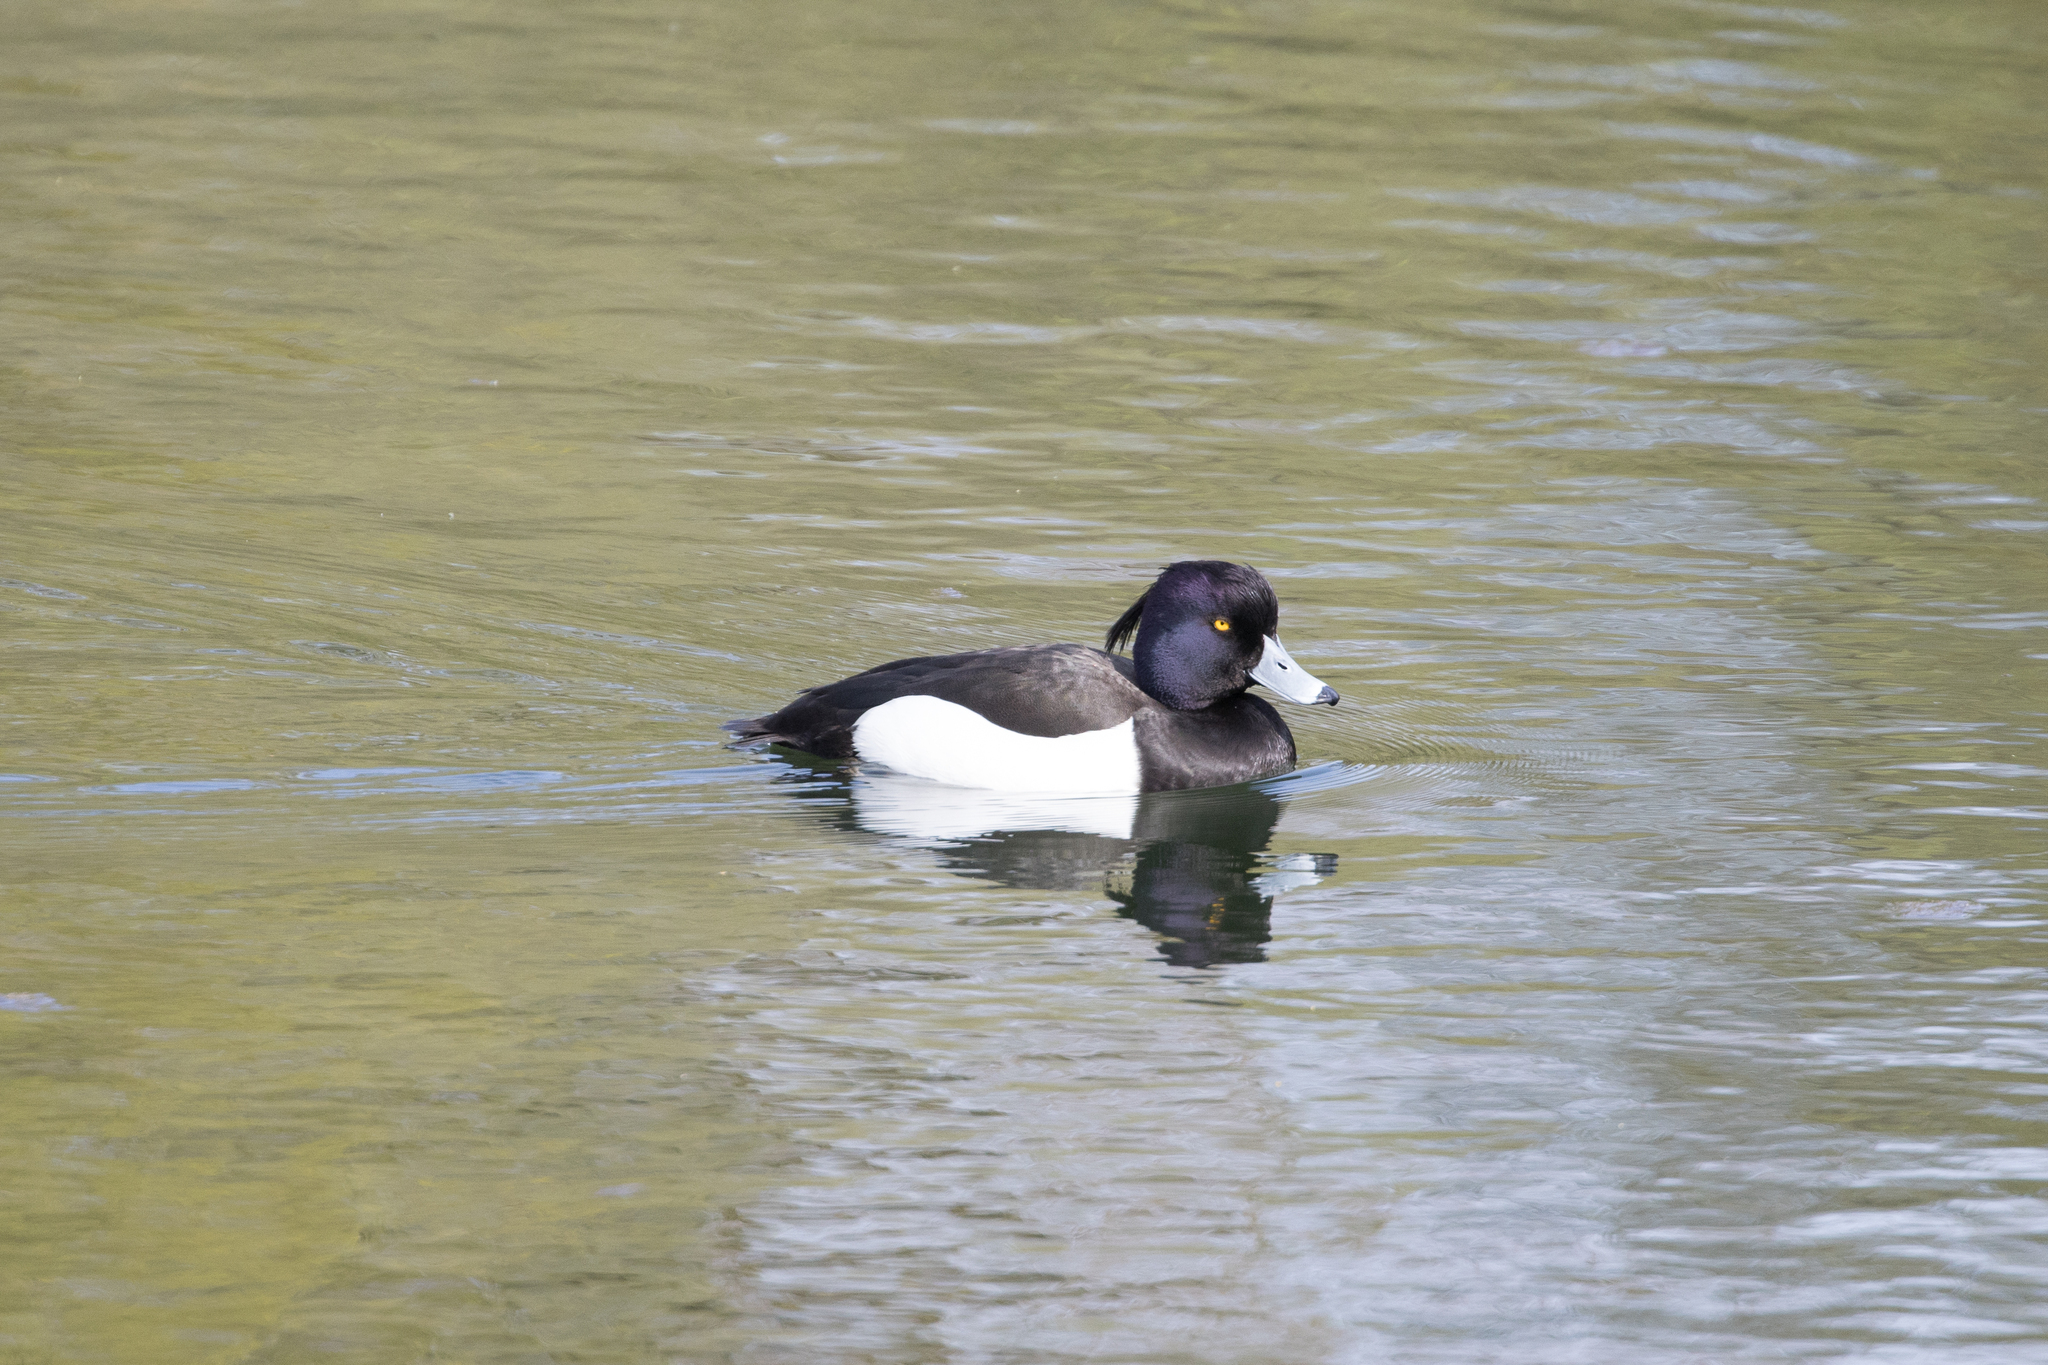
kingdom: Animalia
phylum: Chordata
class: Aves
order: Anseriformes
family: Anatidae
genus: Aythya
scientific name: Aythya fuligula
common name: Tufted duck
